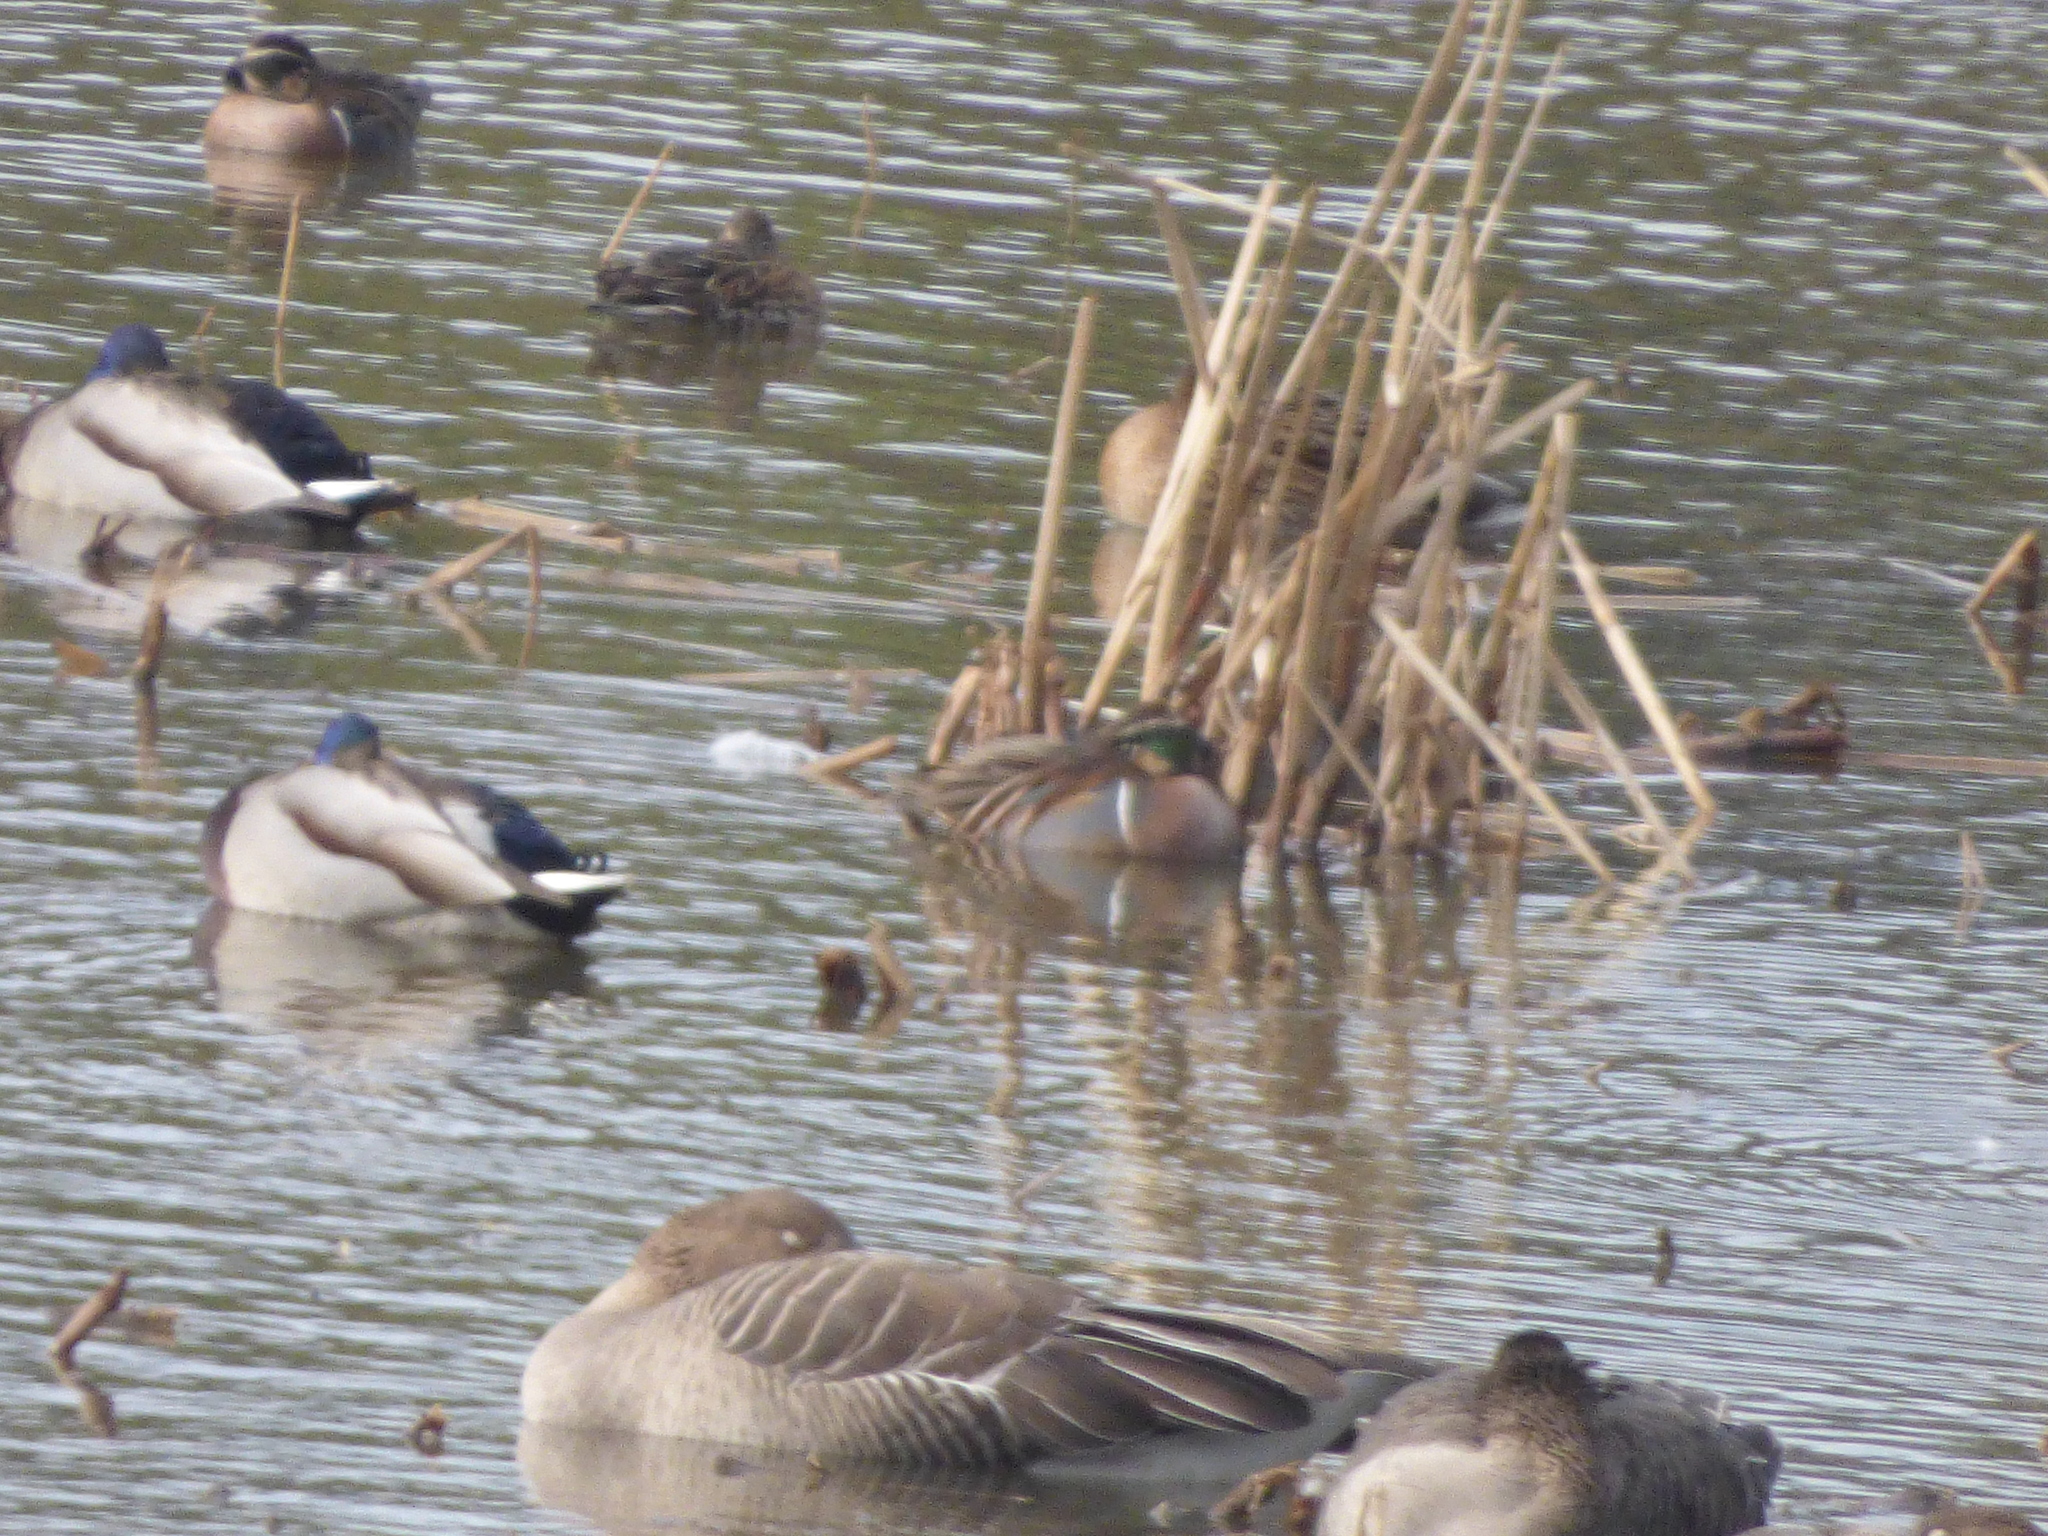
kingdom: Animalia
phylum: Chordata
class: Aves
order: Anseriformes
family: Anatidae
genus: Sibirionetta
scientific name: Sibirionetta formosa
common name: Baikal teal
